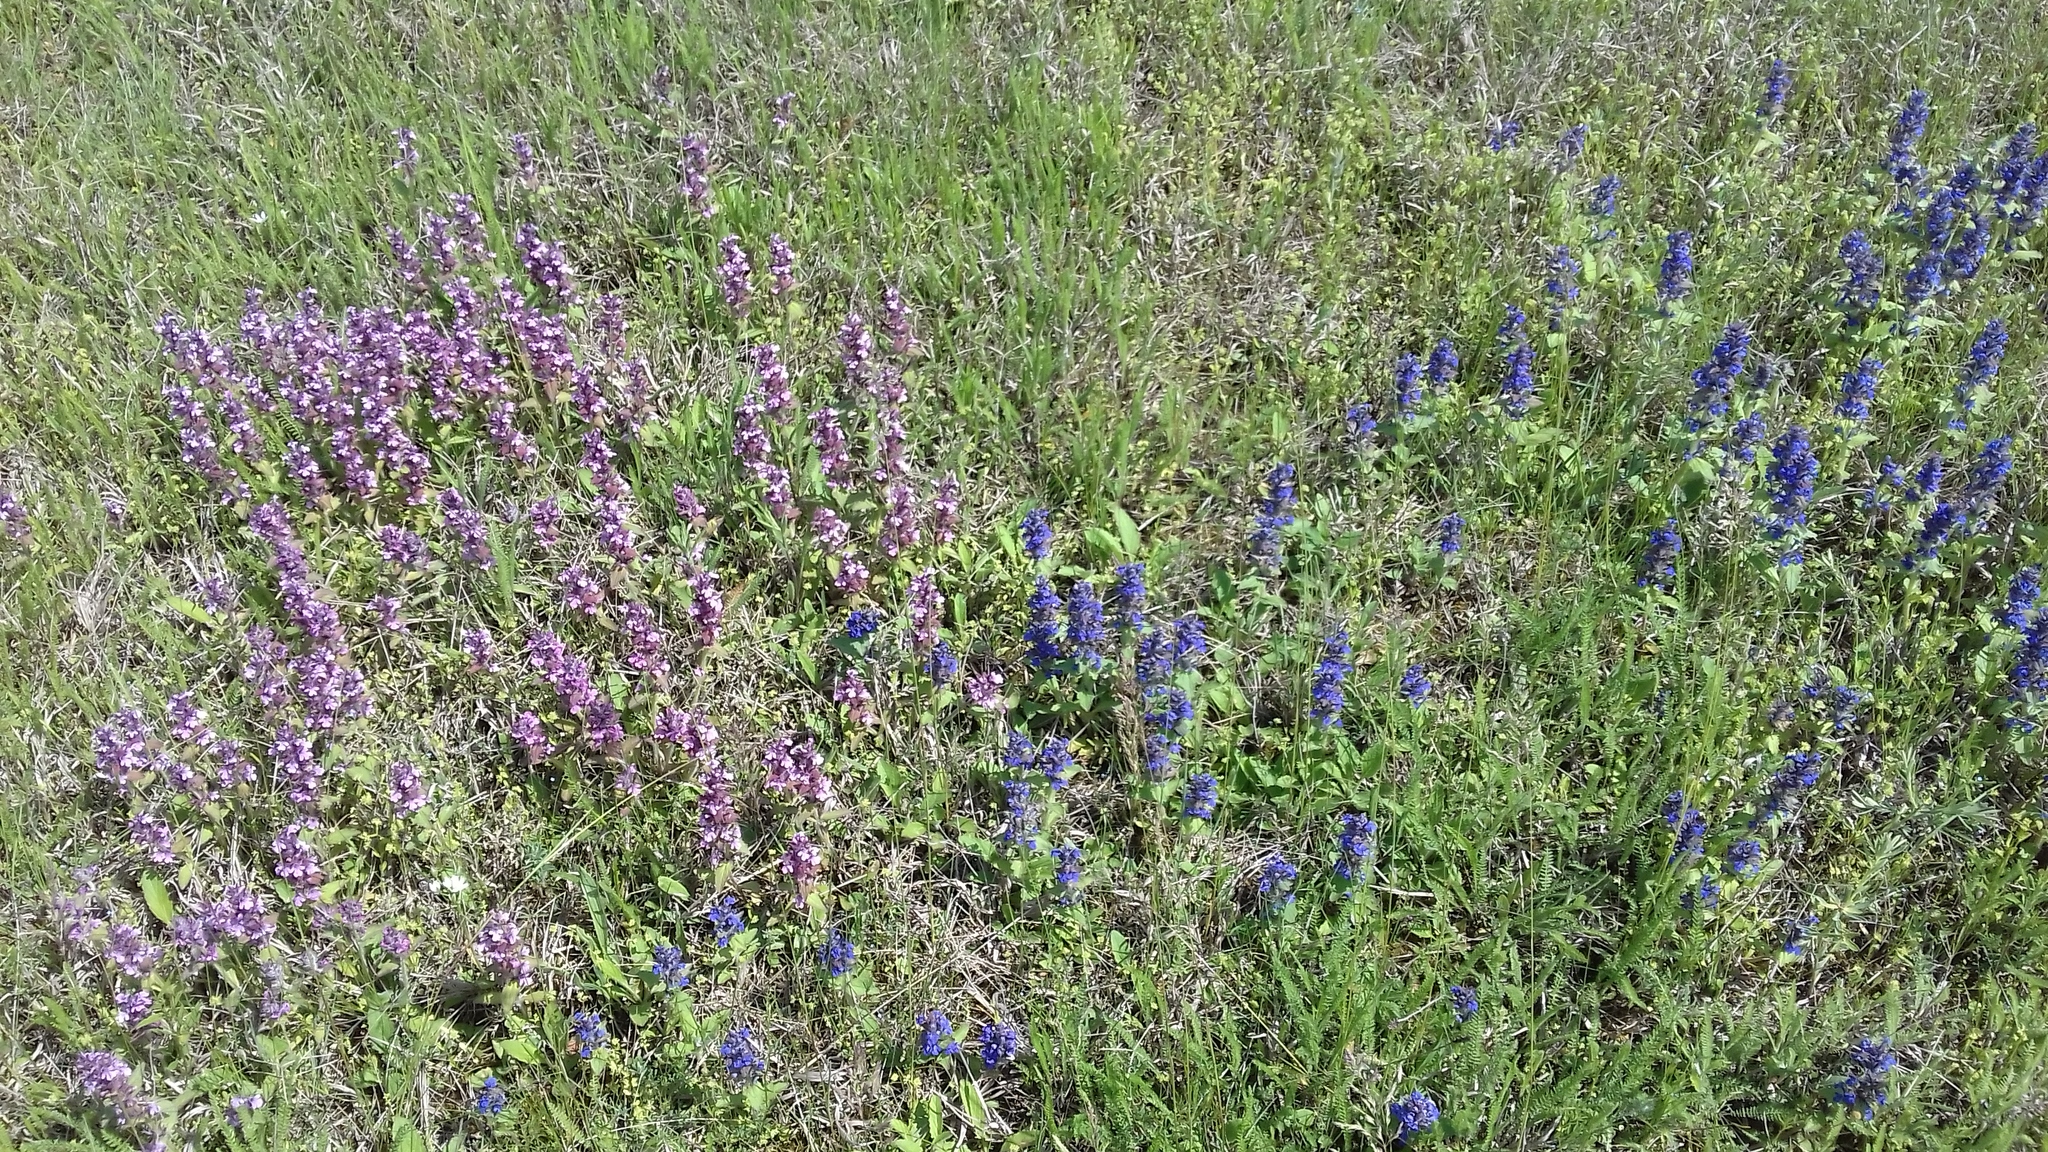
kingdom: Plantae
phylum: Tracheophyta
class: Magnoliopsida
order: Lamiales
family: Lamiaceae
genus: Ajuga
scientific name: Ajuga genevensis
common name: Blue bugle
